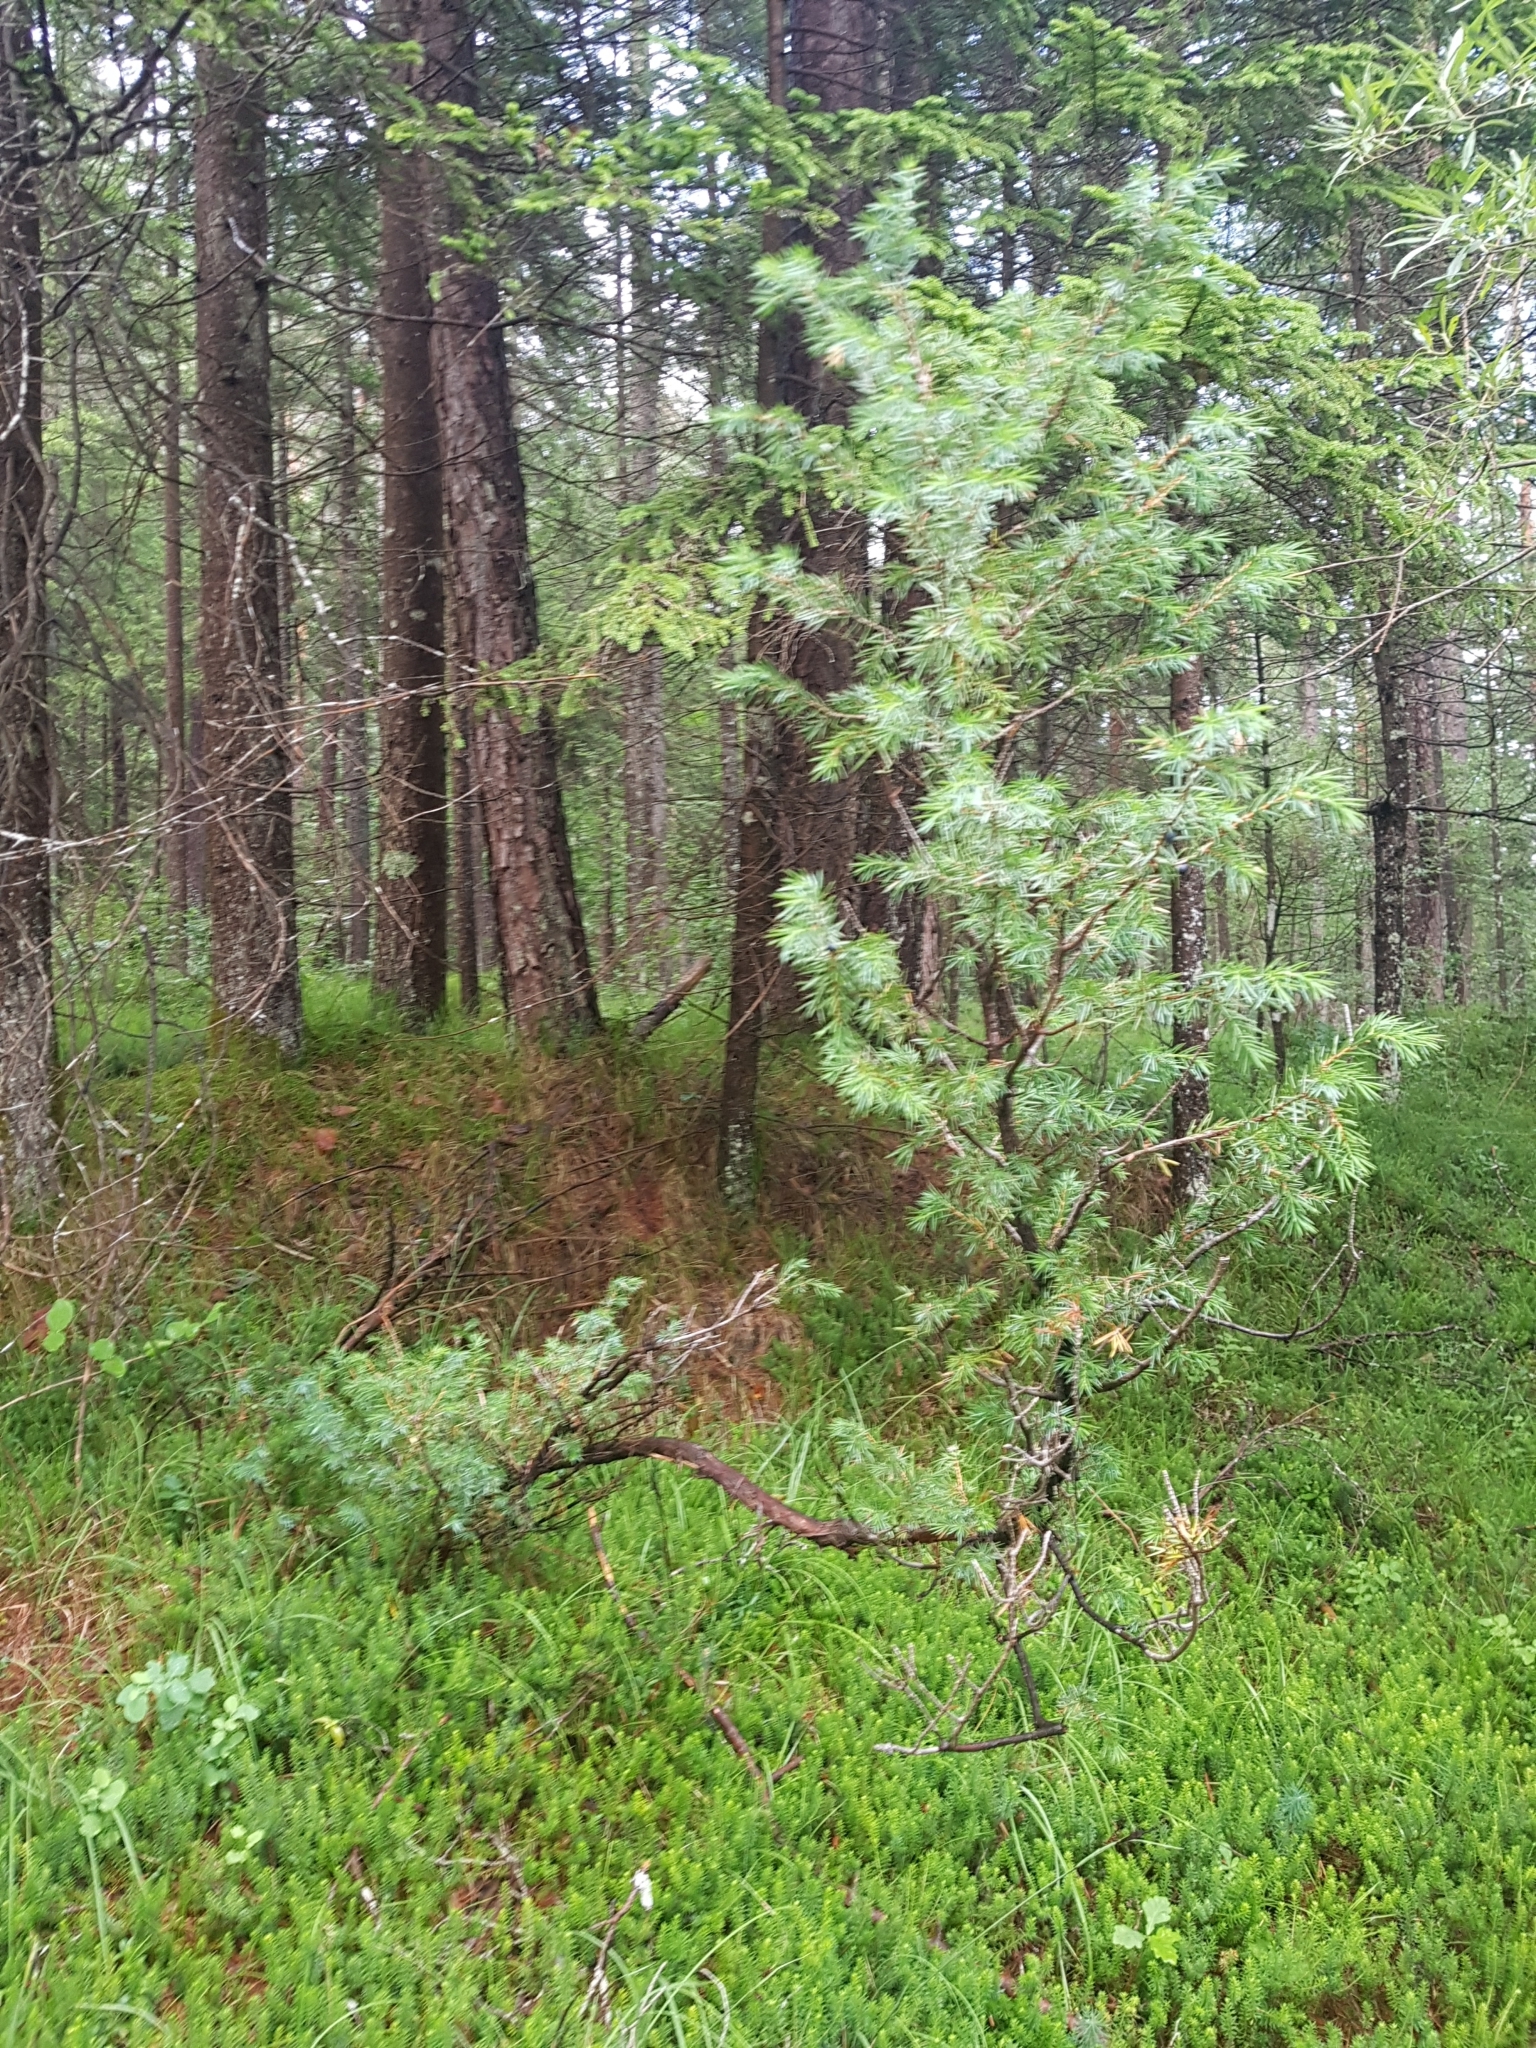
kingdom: Plantae
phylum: Tracheophyta
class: Pinopsida
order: Pinales
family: Cupressaceae
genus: Juniperus
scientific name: Juniperus communis
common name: Common juniper
